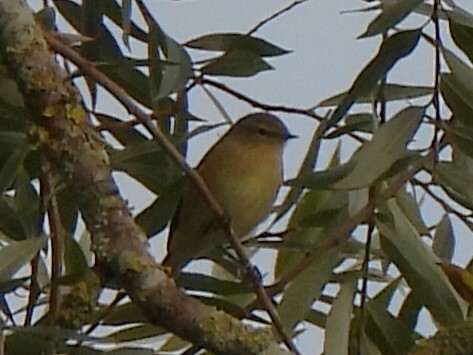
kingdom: Animalia
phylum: Chordata
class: Aves
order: Passeriformes
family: Phylloscopidae
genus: Phylloscopus
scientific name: Phylloscopus collybita
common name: Common chiffchaff
